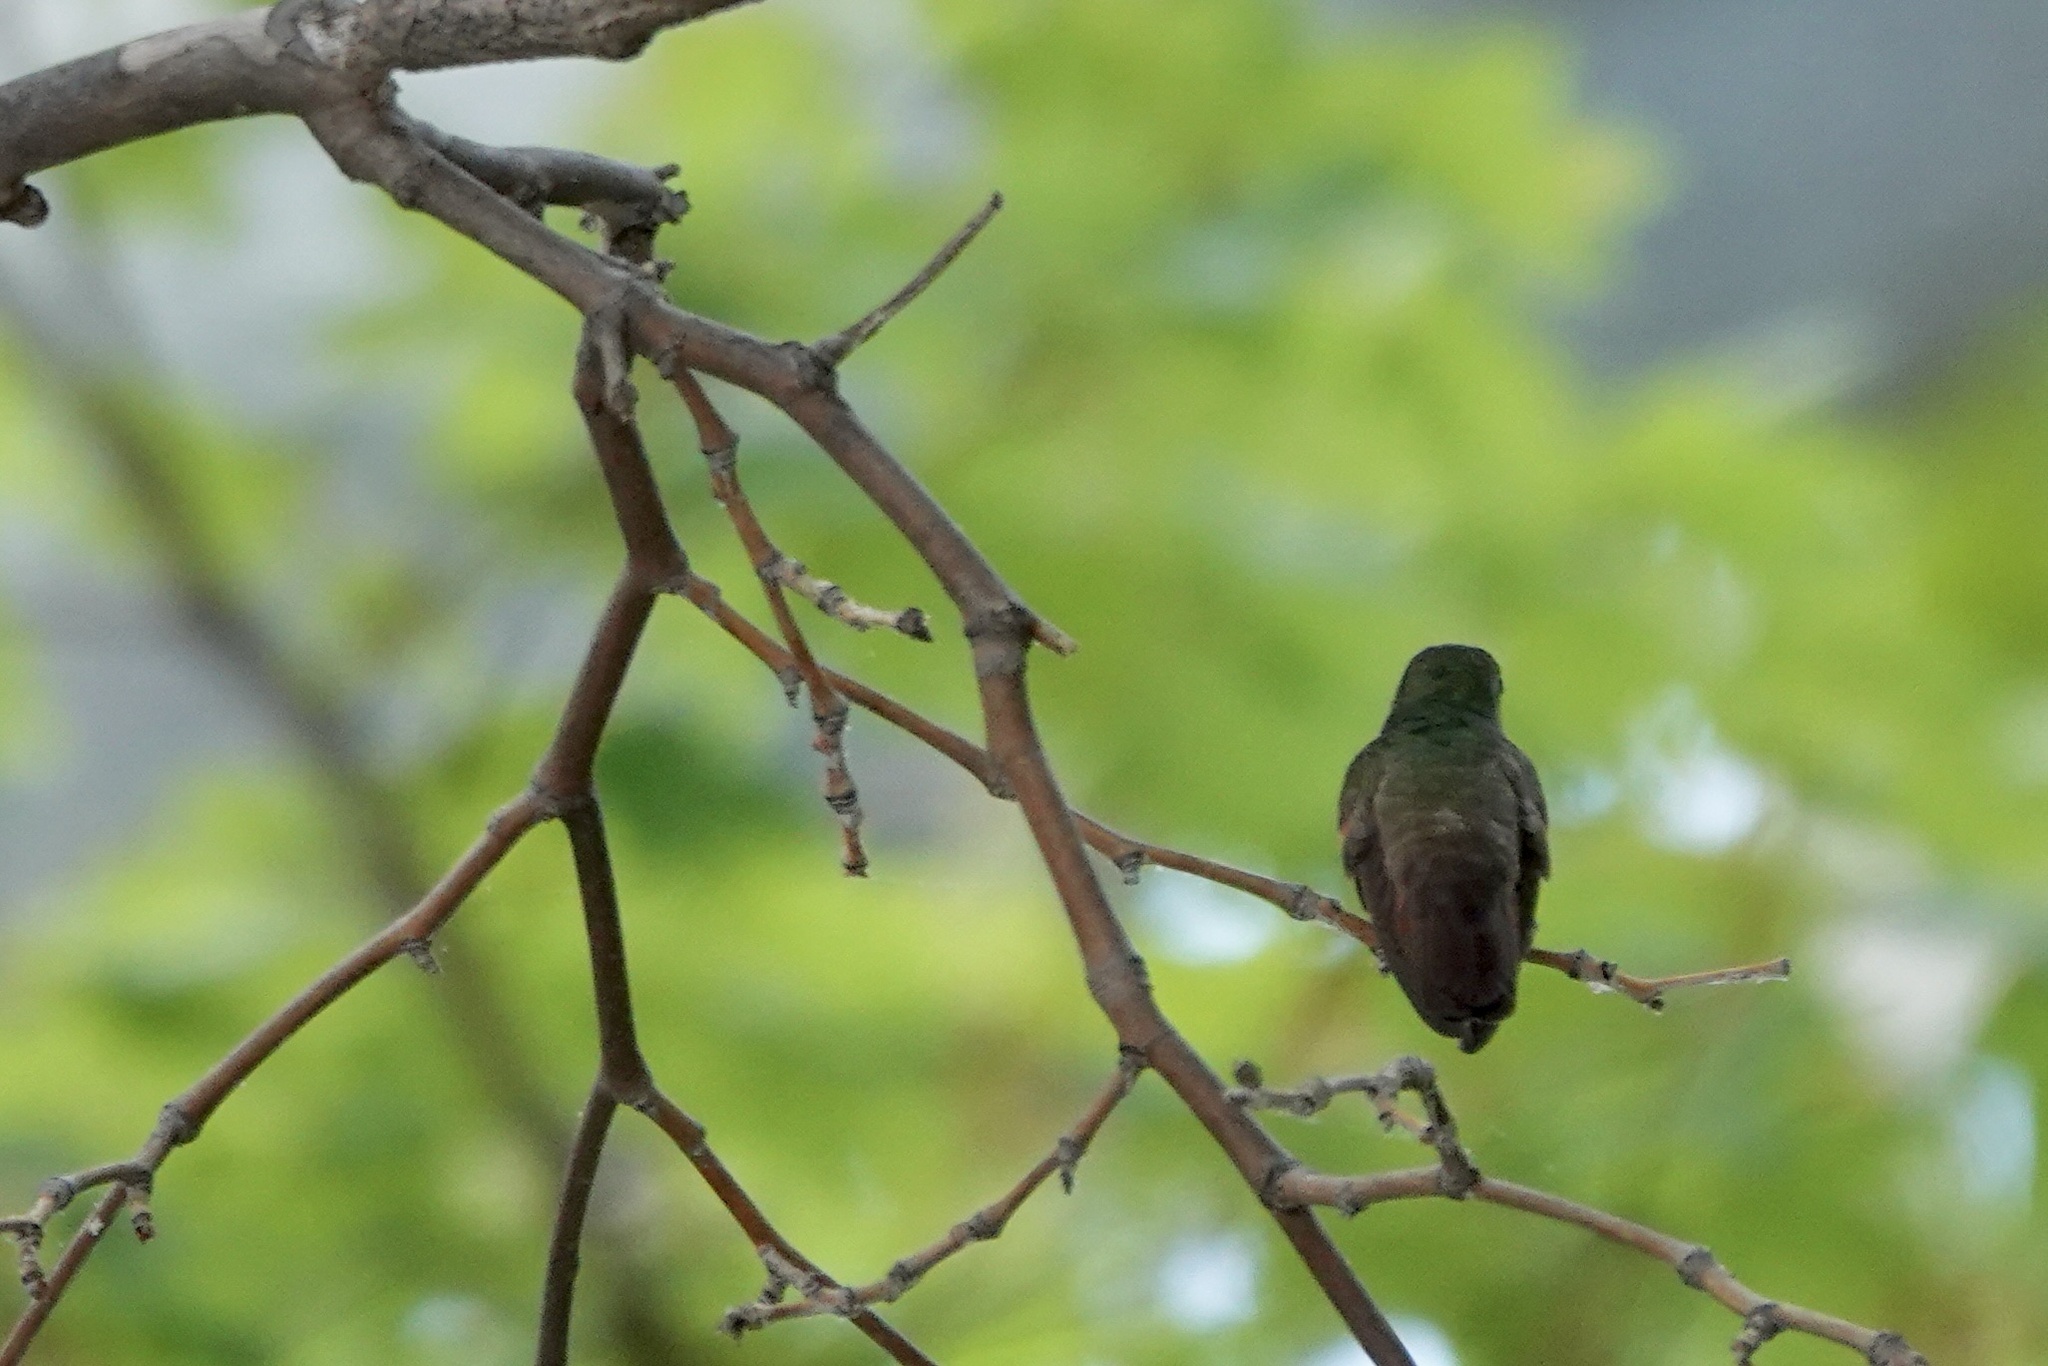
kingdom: Animalia
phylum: Chordata
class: Aves
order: Apodiformes
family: Trochilidae
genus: Saucerottia
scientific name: Saucerottia beryllina
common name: Berylline hummingbird
